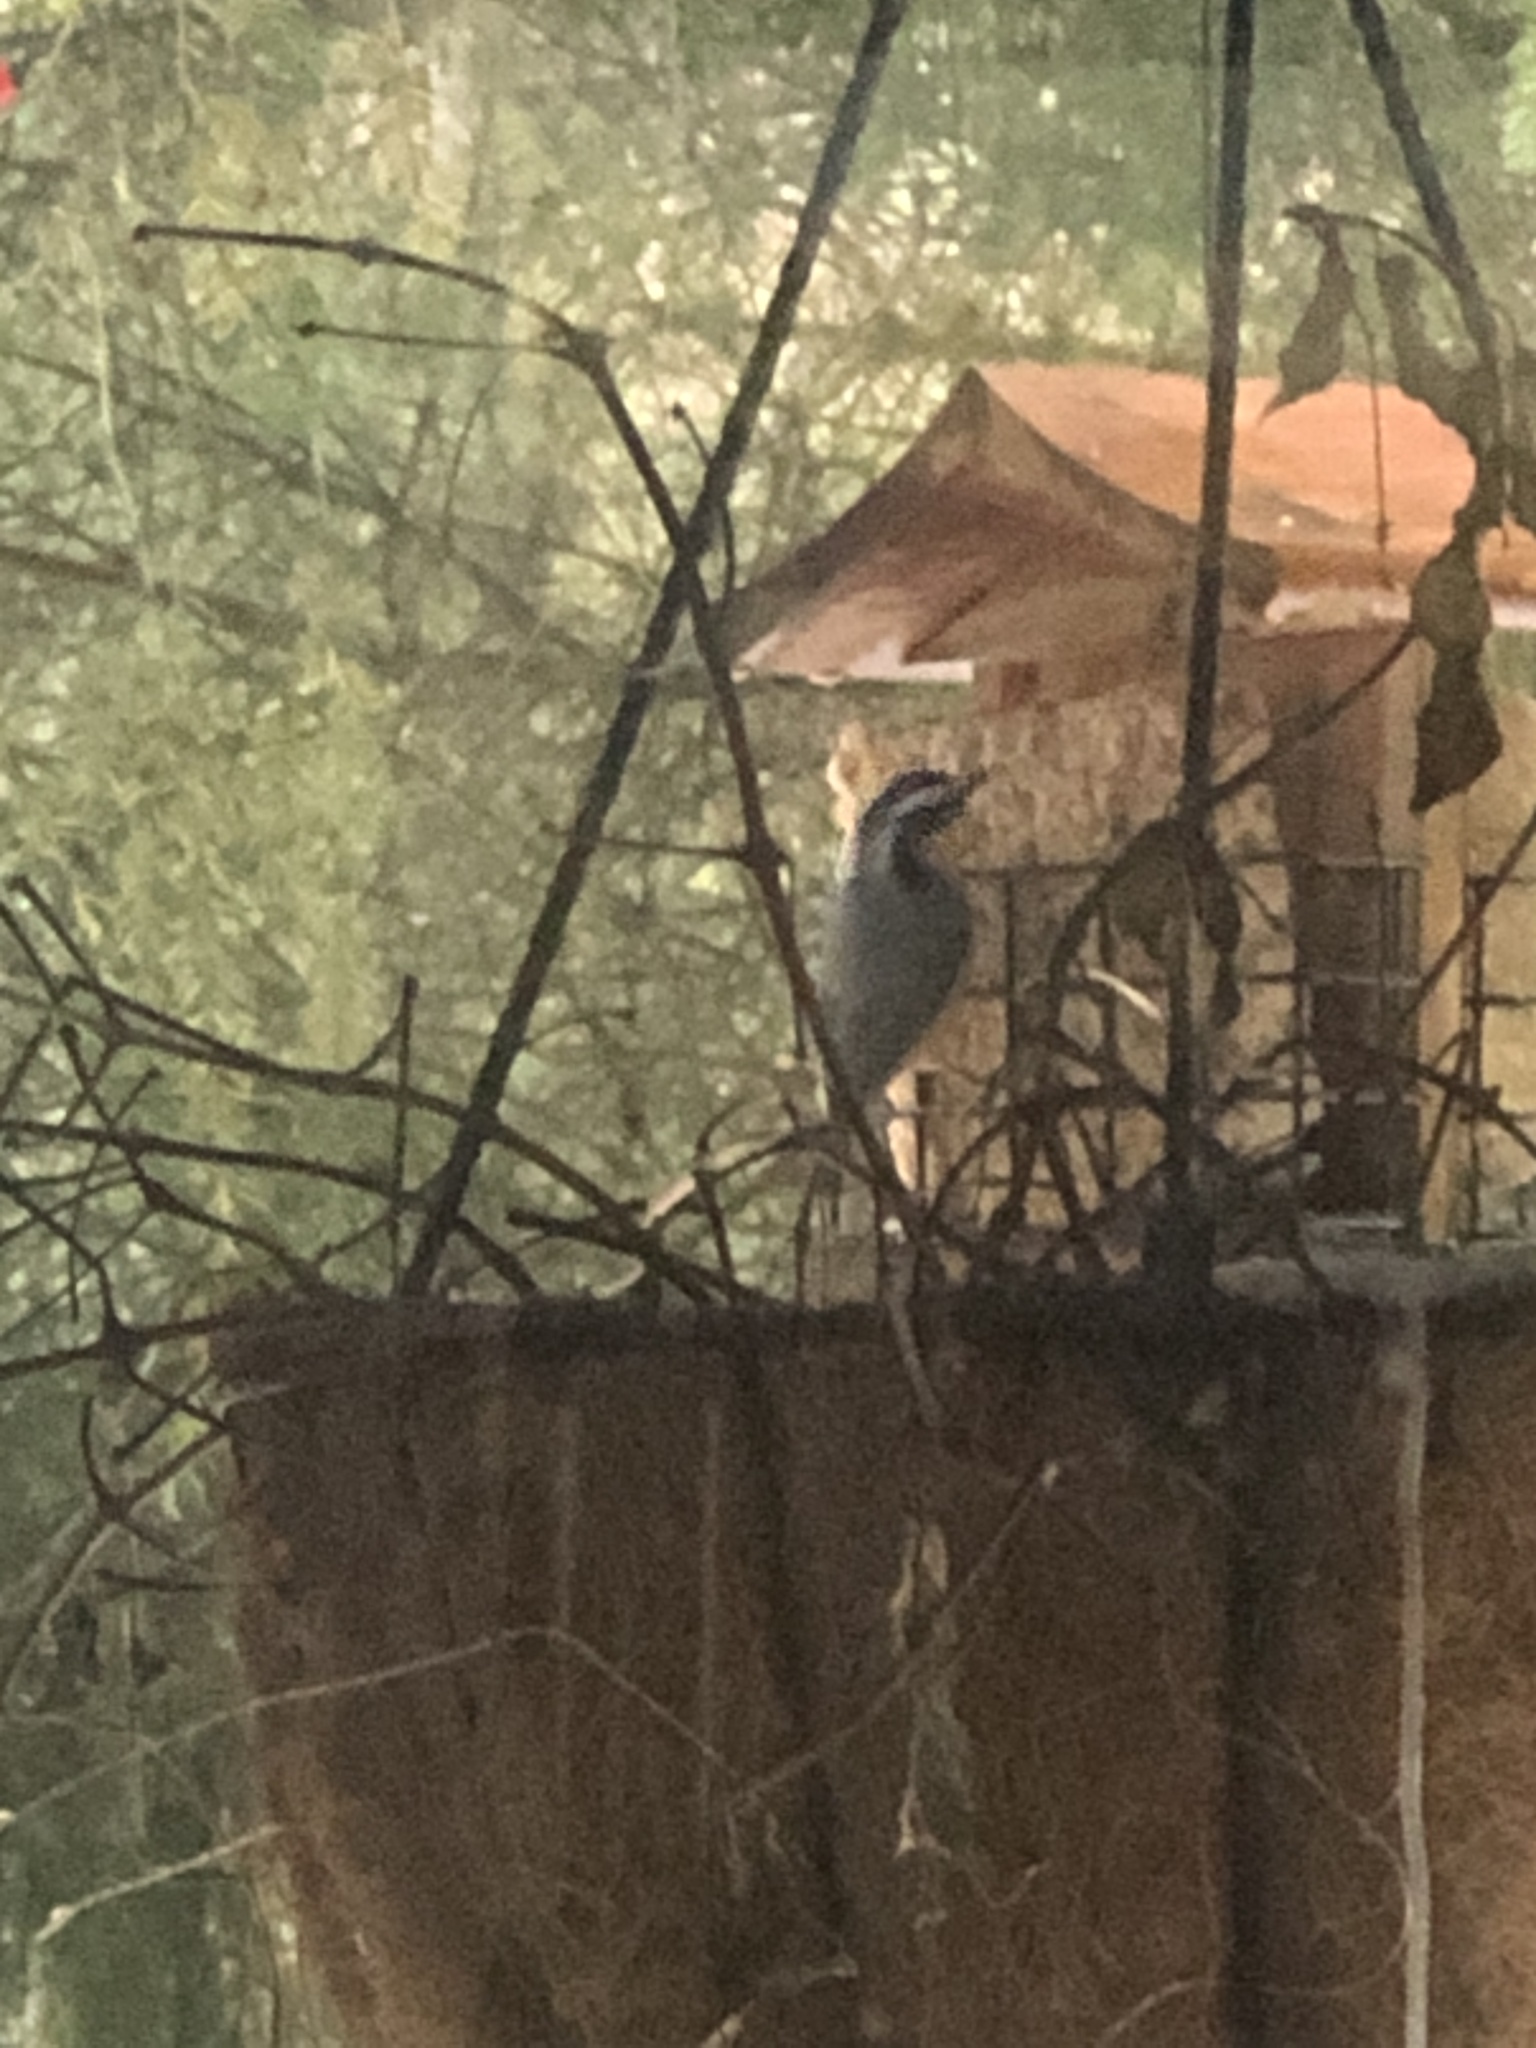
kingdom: Animalia
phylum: Chordata
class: Aves
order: Passeriformes
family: Sittidae
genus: Sitta
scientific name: Sitta canadensis
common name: Red-breasted nuthatch
